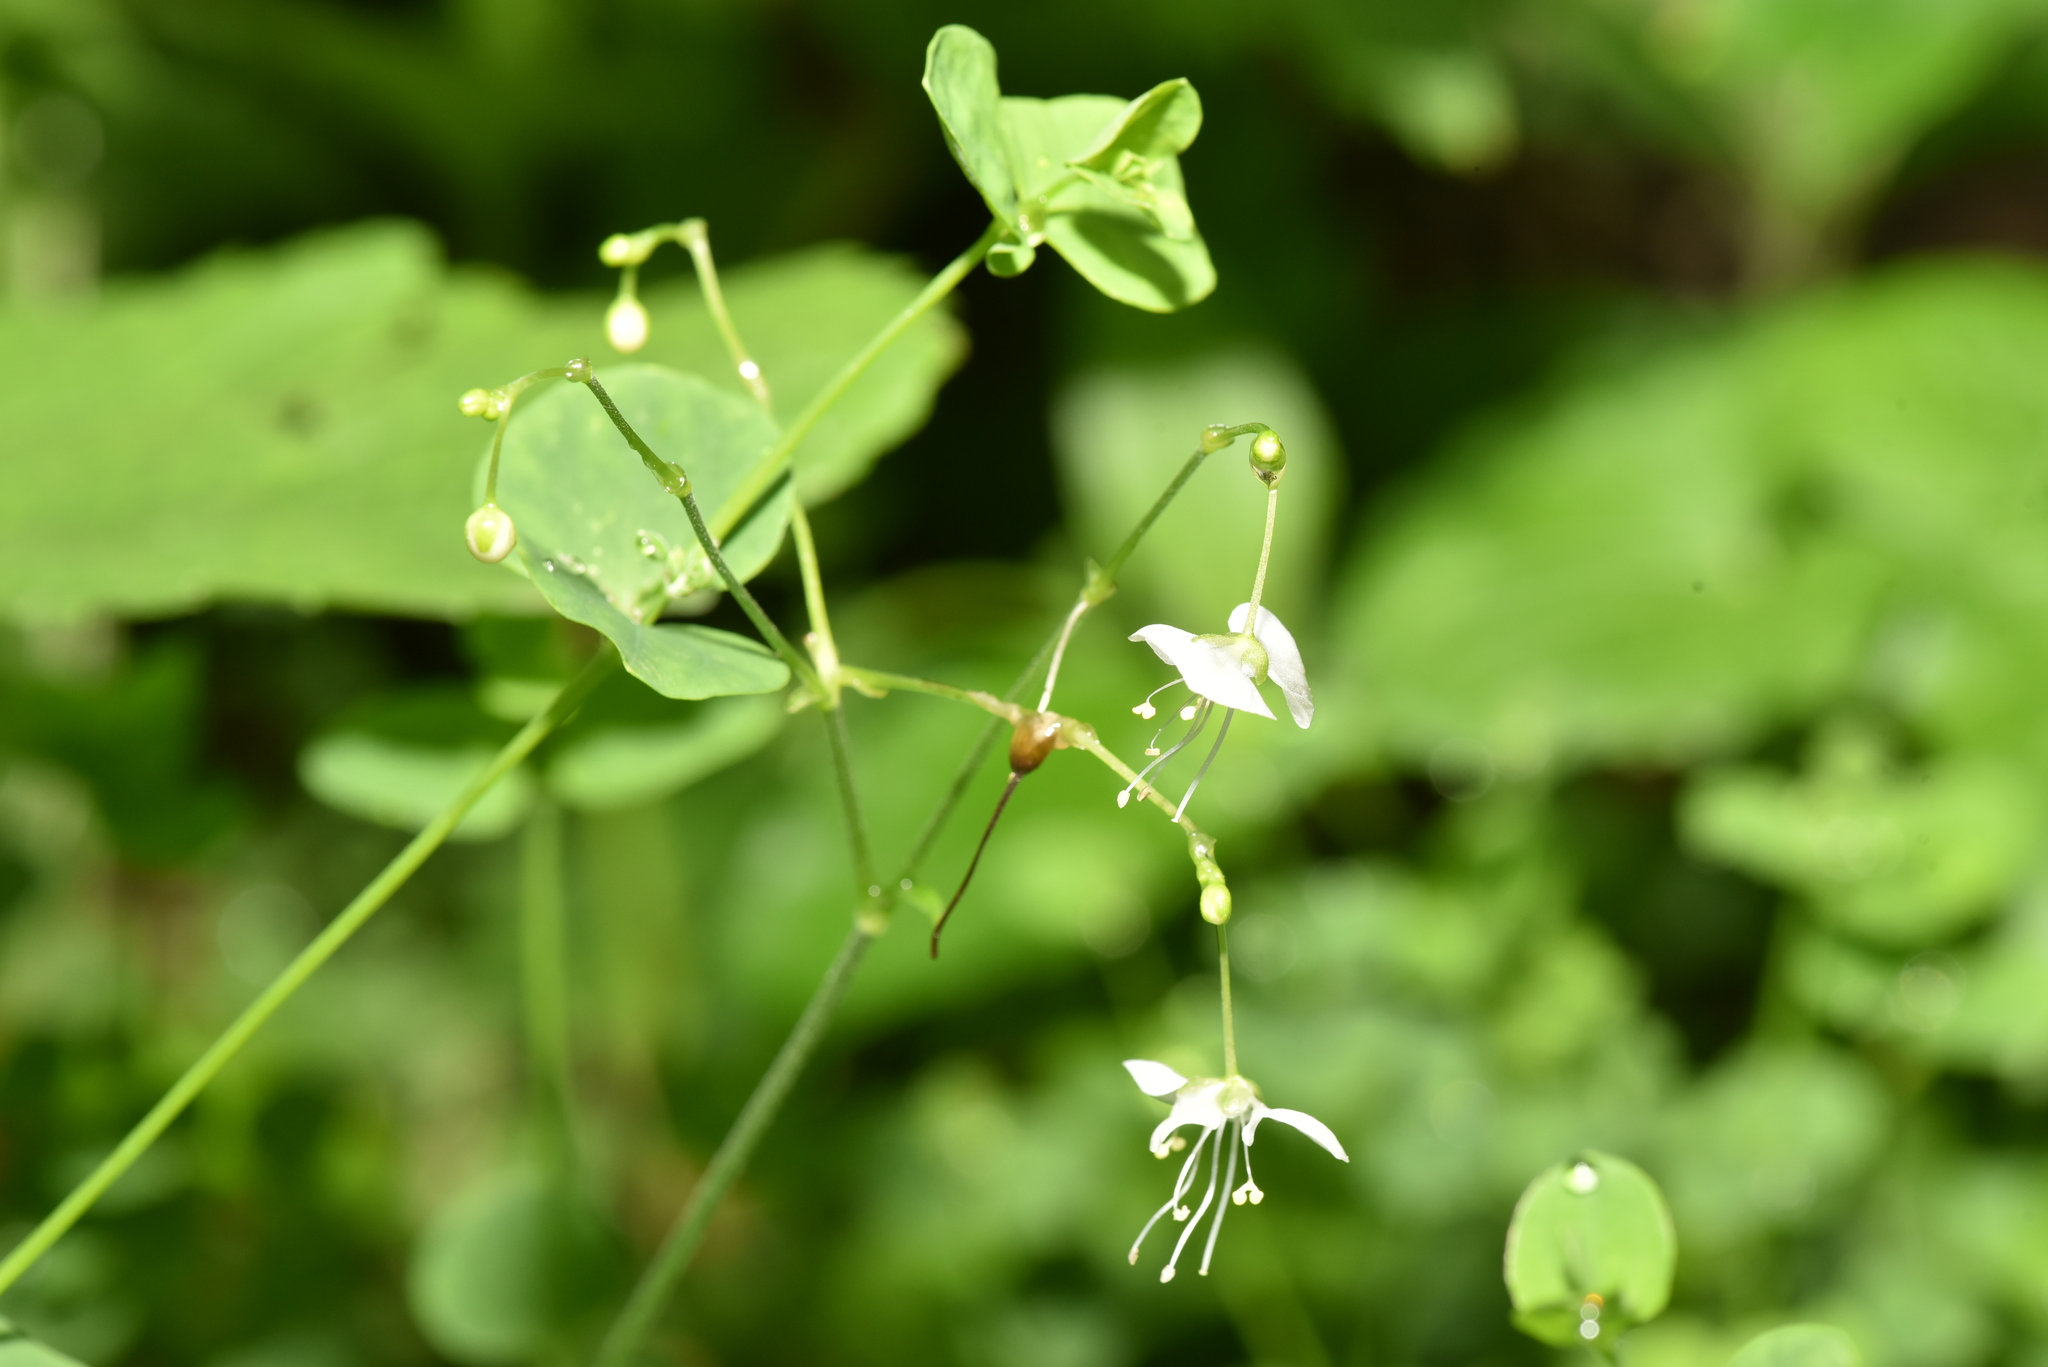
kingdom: Plantae
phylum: Tracheophyta
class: Liliopsida
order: Commelinales
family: Commelinaceae
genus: Rhopalephora
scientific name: Rhopalephora scaberrima
